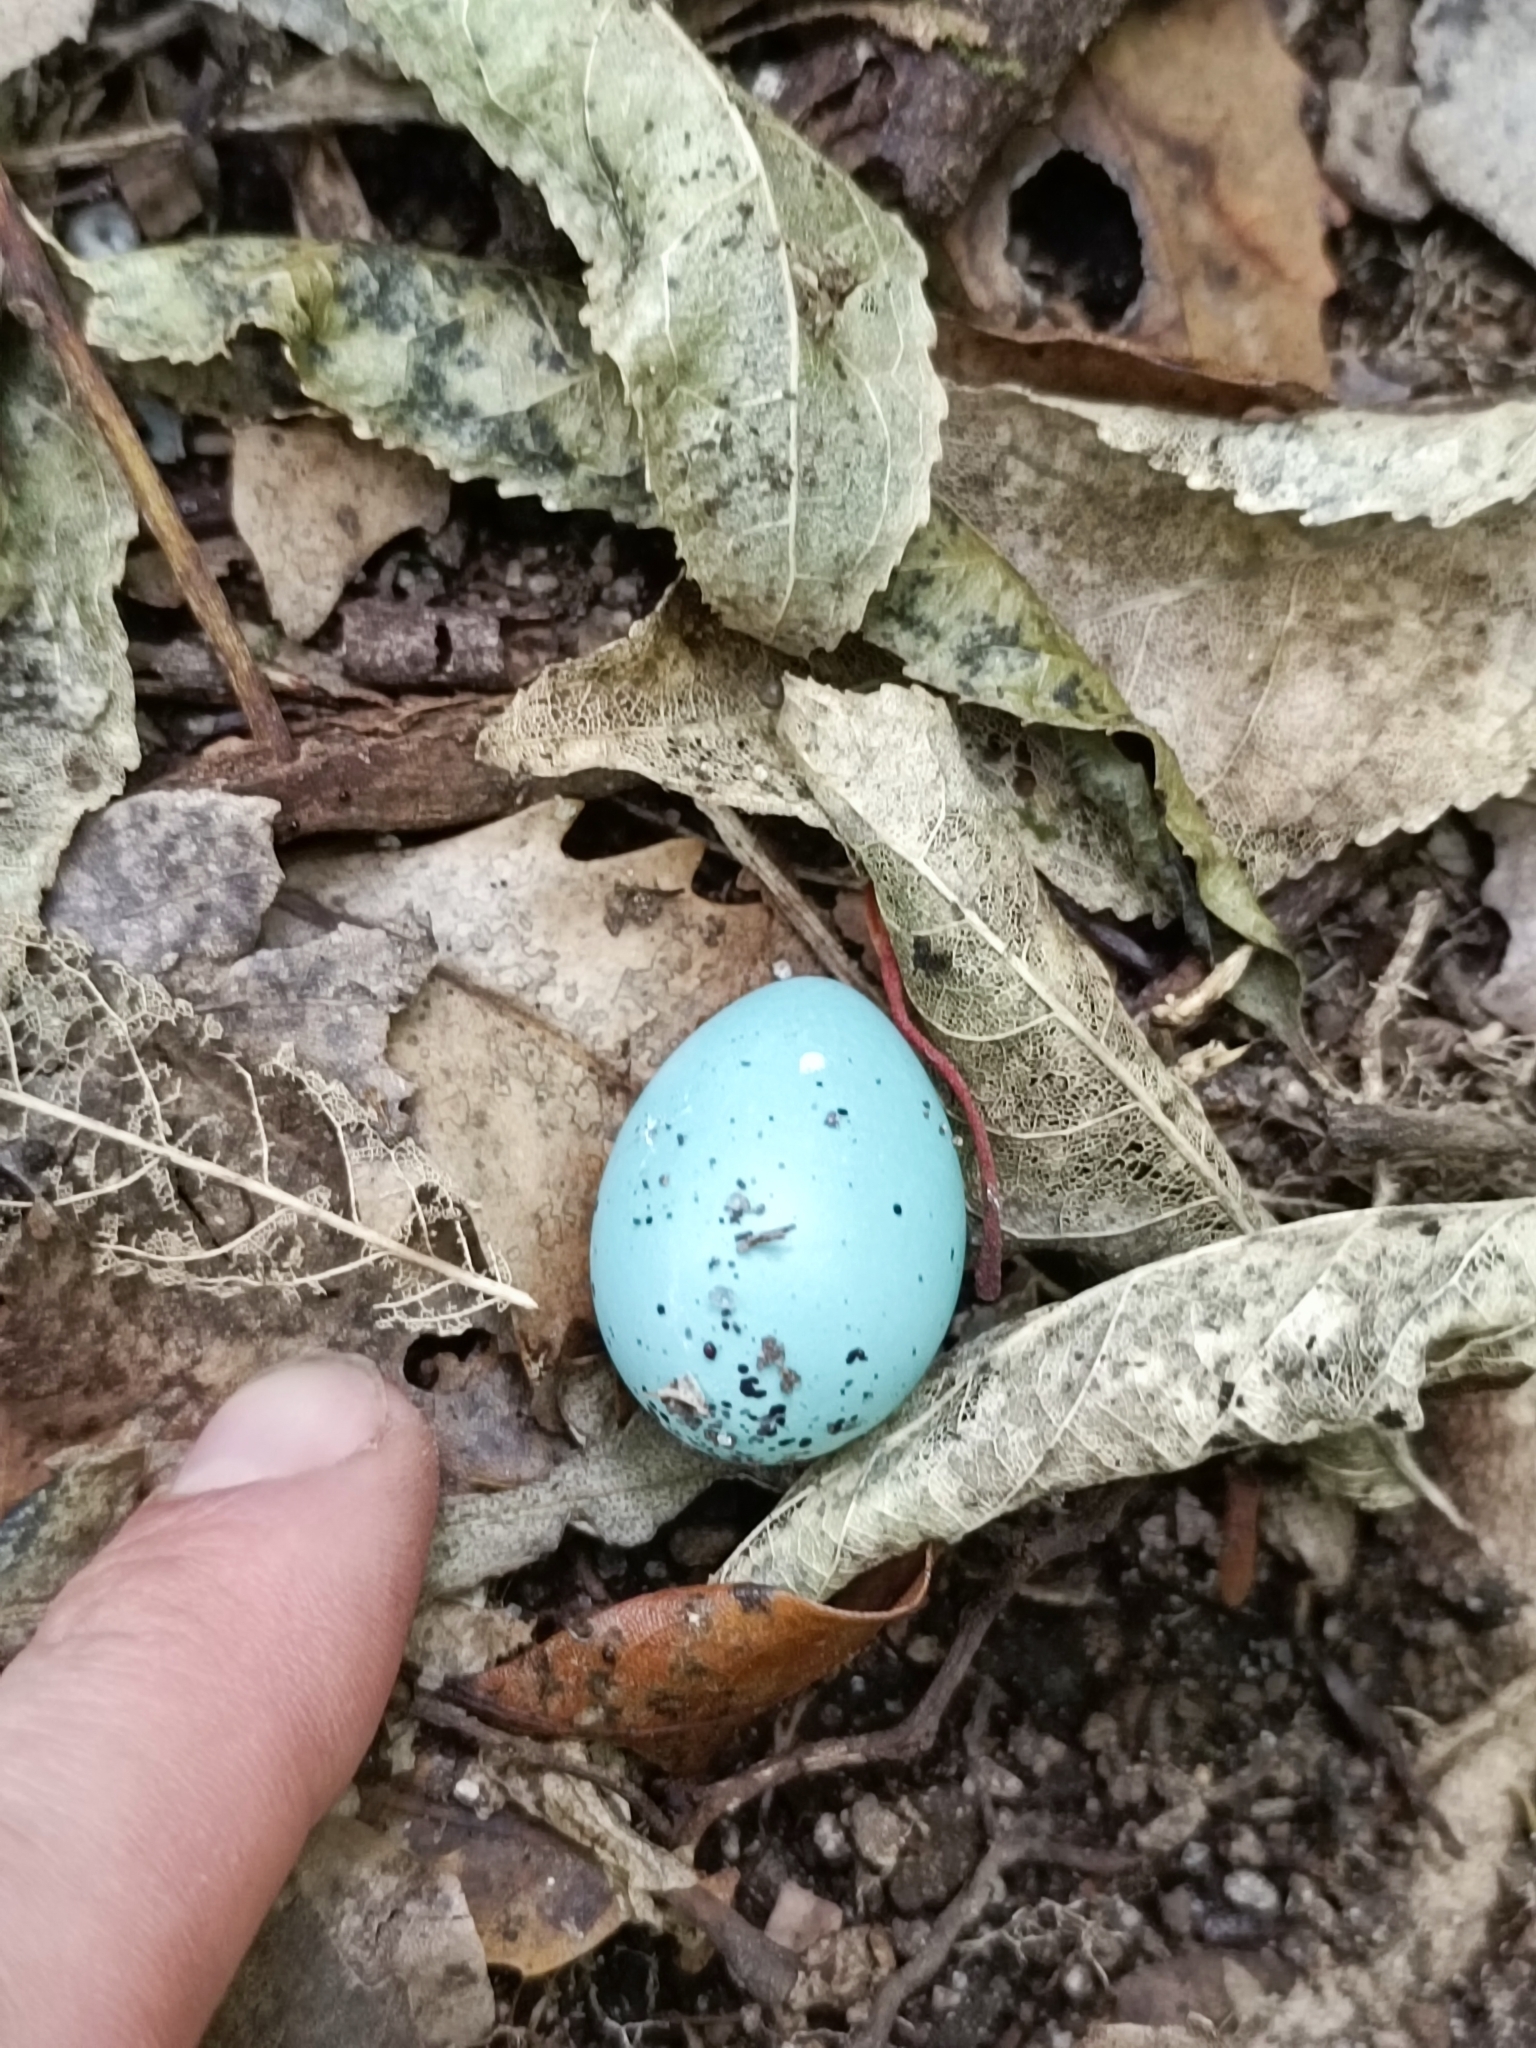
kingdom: Animalia
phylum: Chordata
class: Aves
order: Passeriformes
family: Turdidae
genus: Turdus
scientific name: Turdus philomelos
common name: Song thrush
